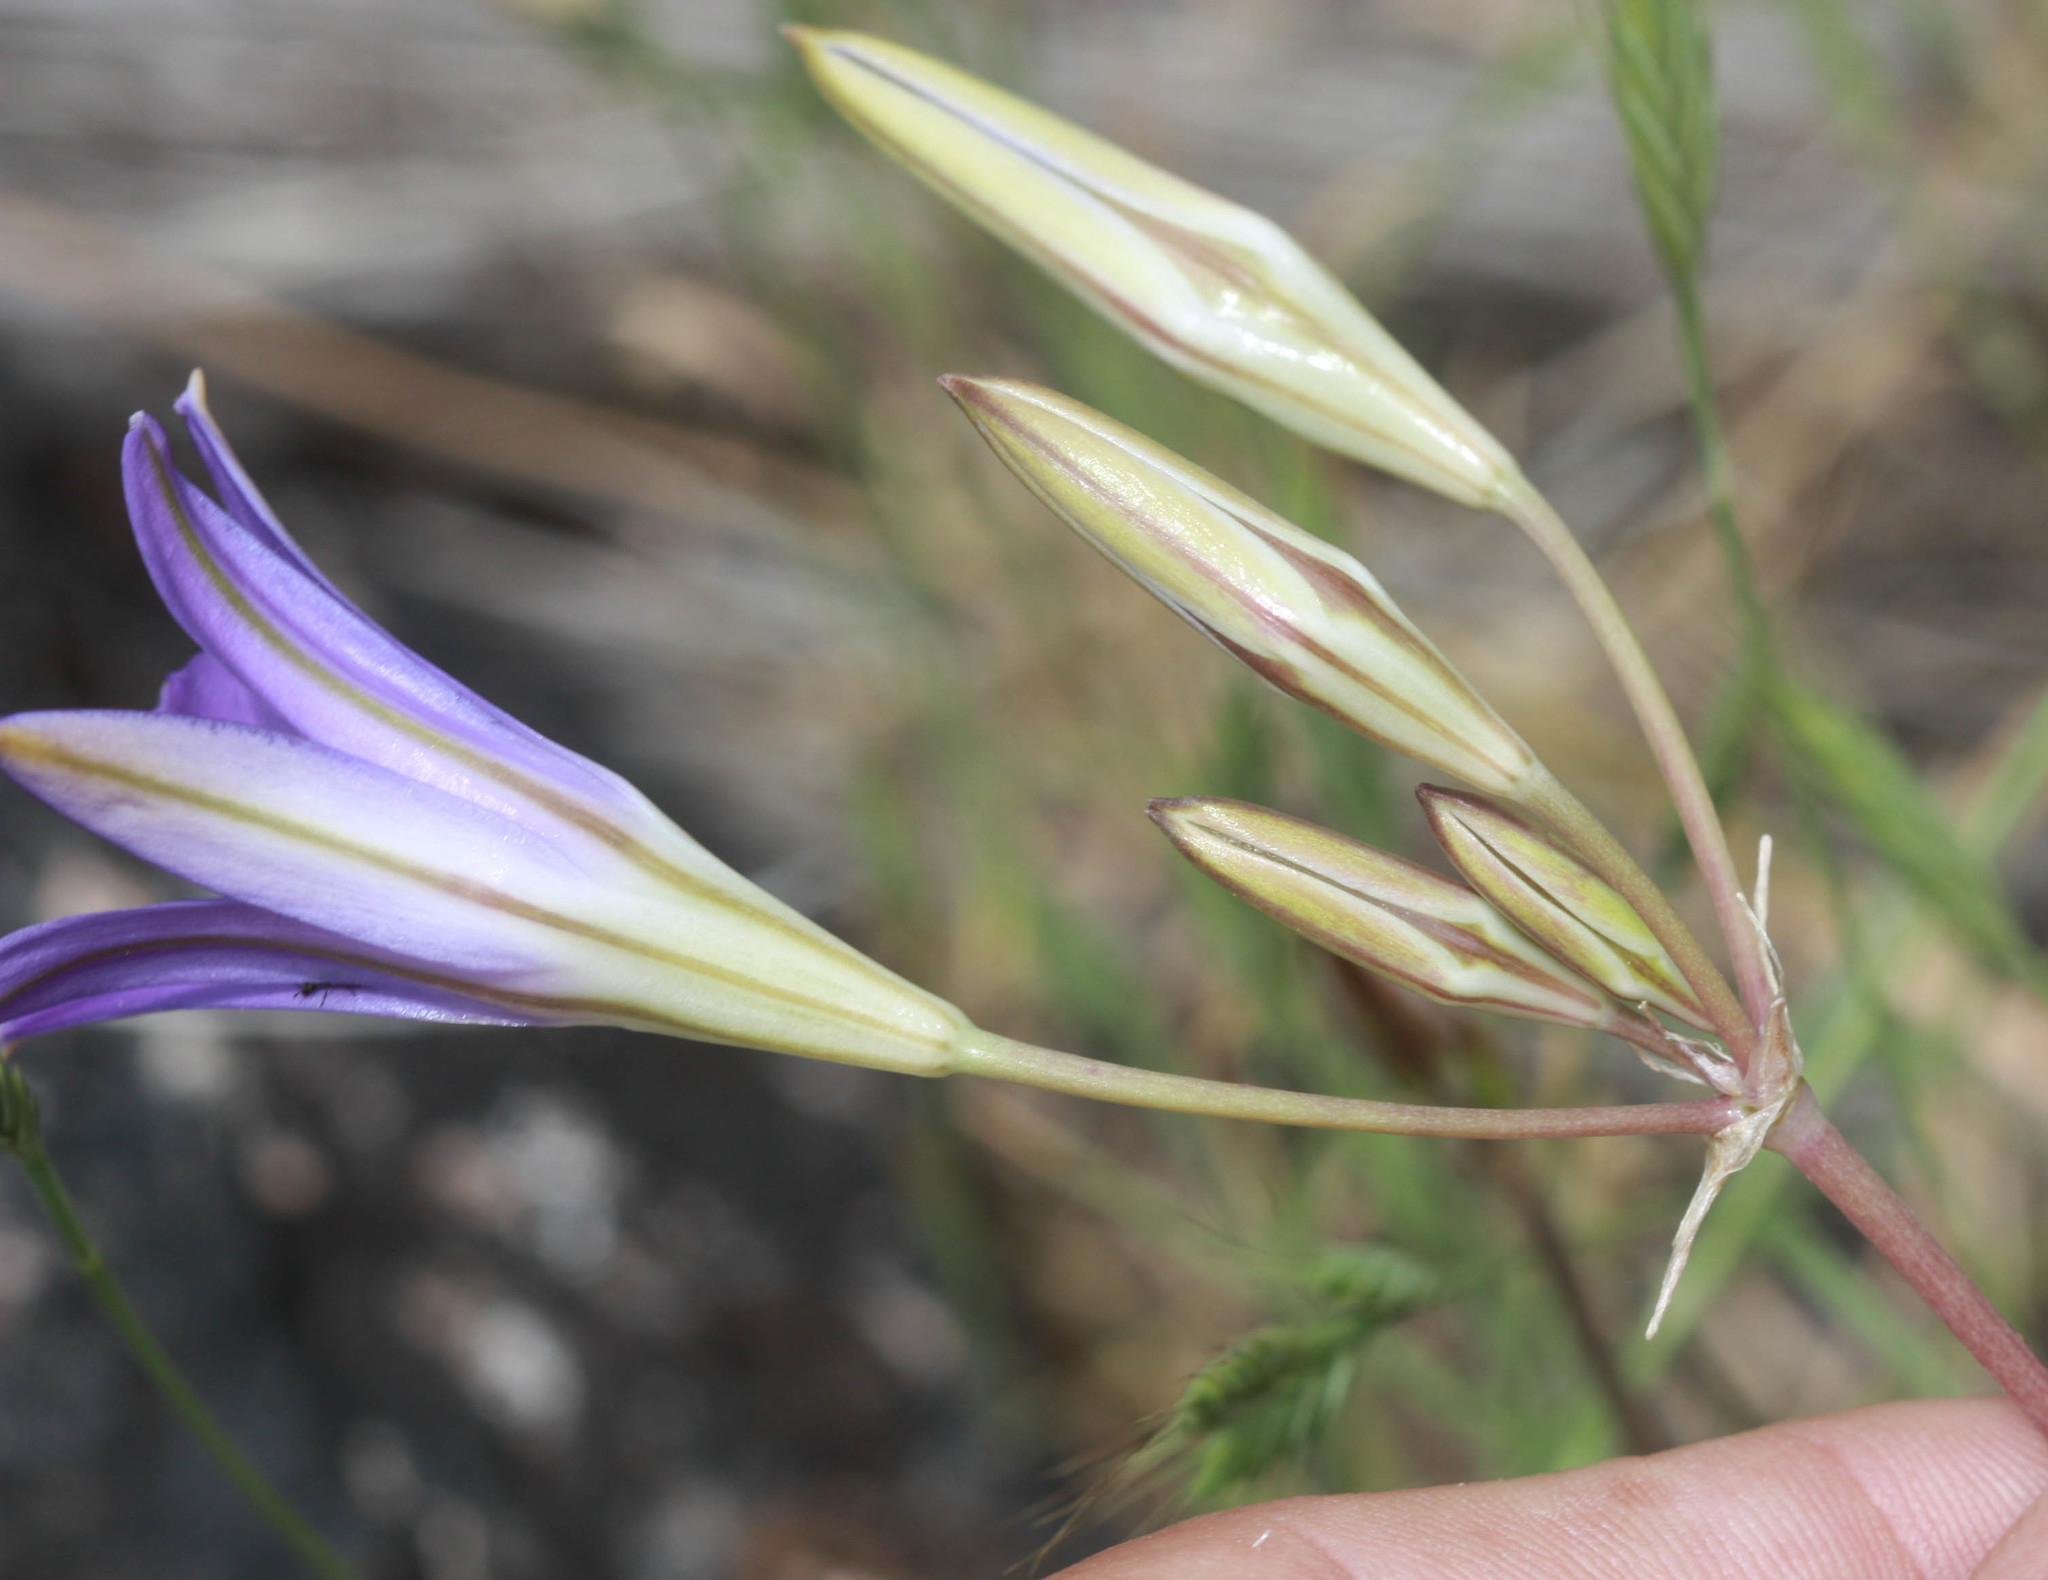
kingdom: Plantae
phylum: Tracheophyta
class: Liliopsida
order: Asparagales
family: Asparagaceae
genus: Brodiaea
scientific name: Brodiaea elegans
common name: Elegant cluster-lily
